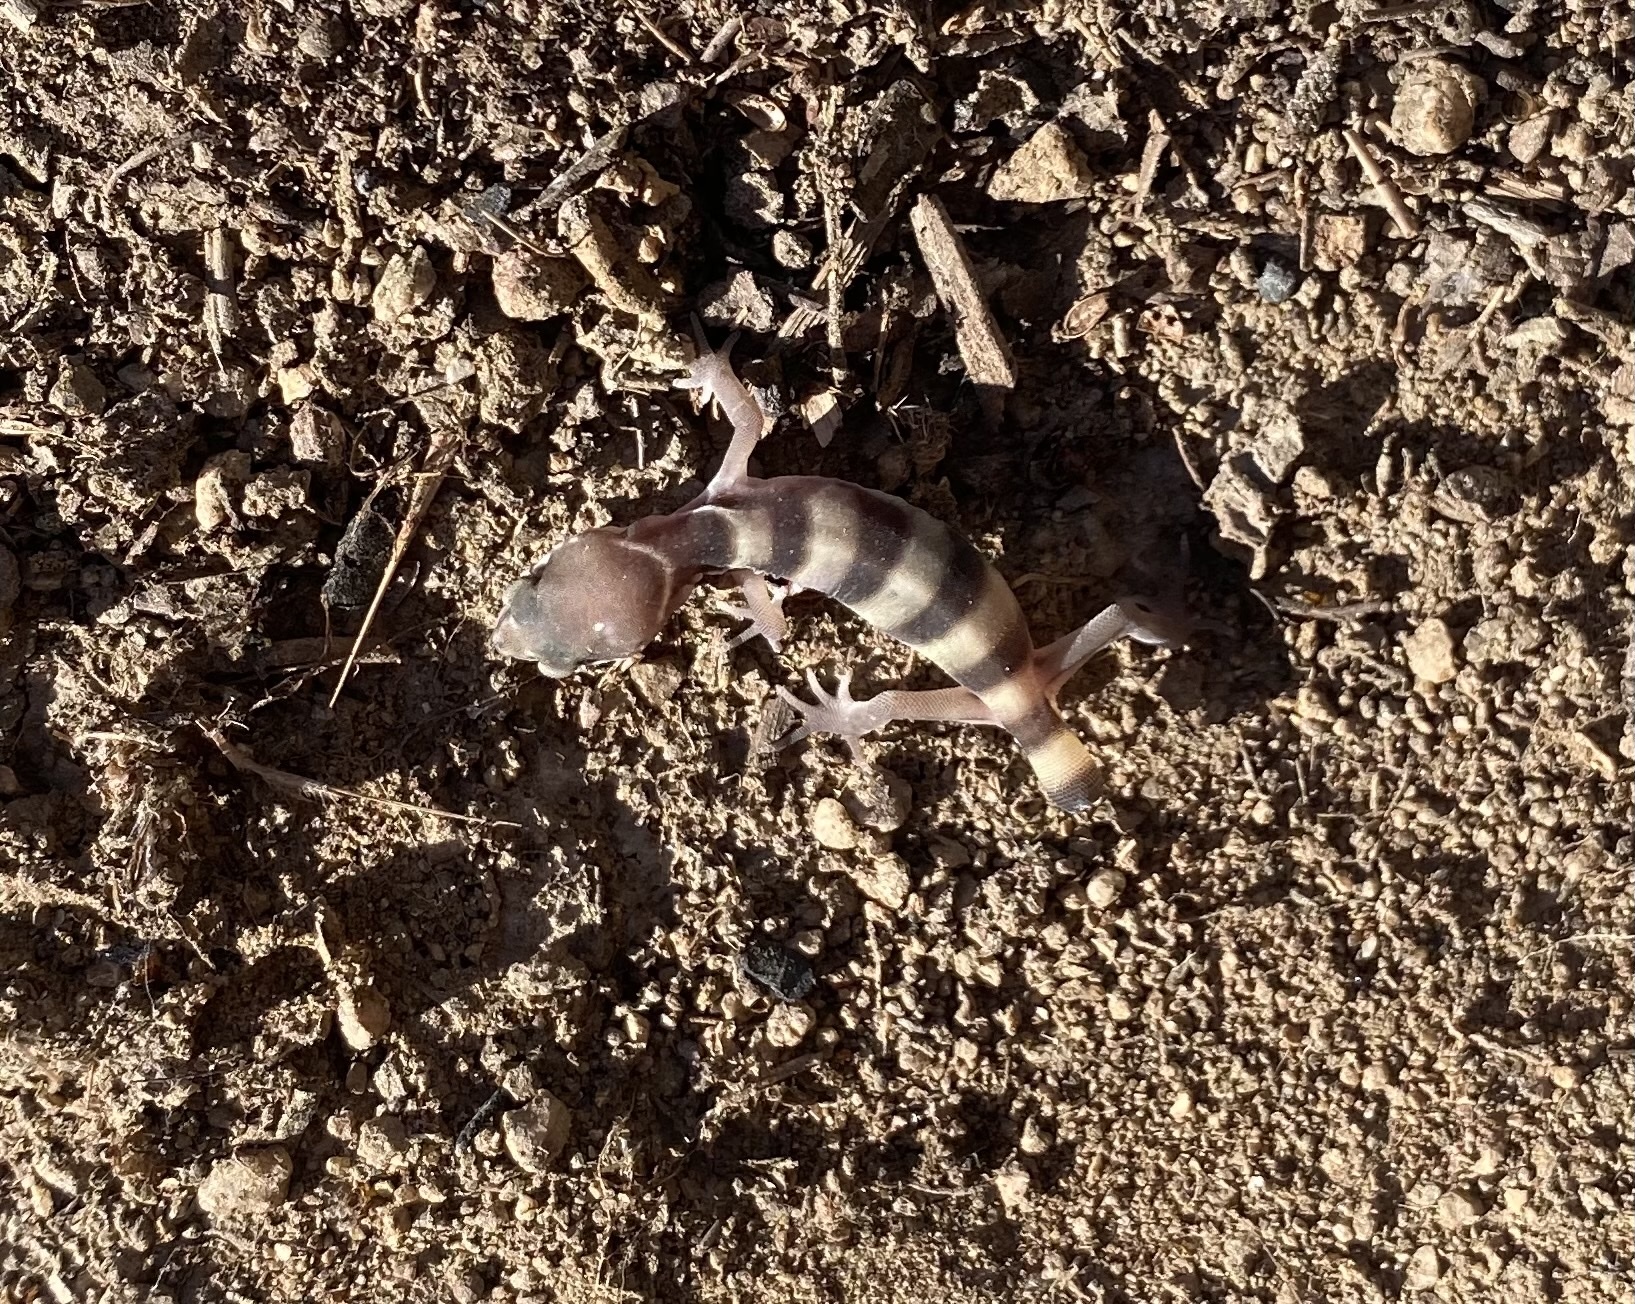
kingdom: Animalia
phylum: Chordata
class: Squamata
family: Eublepharidae
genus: Coleonyx
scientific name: Coleonyx variegatus
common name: Western banded gecko
